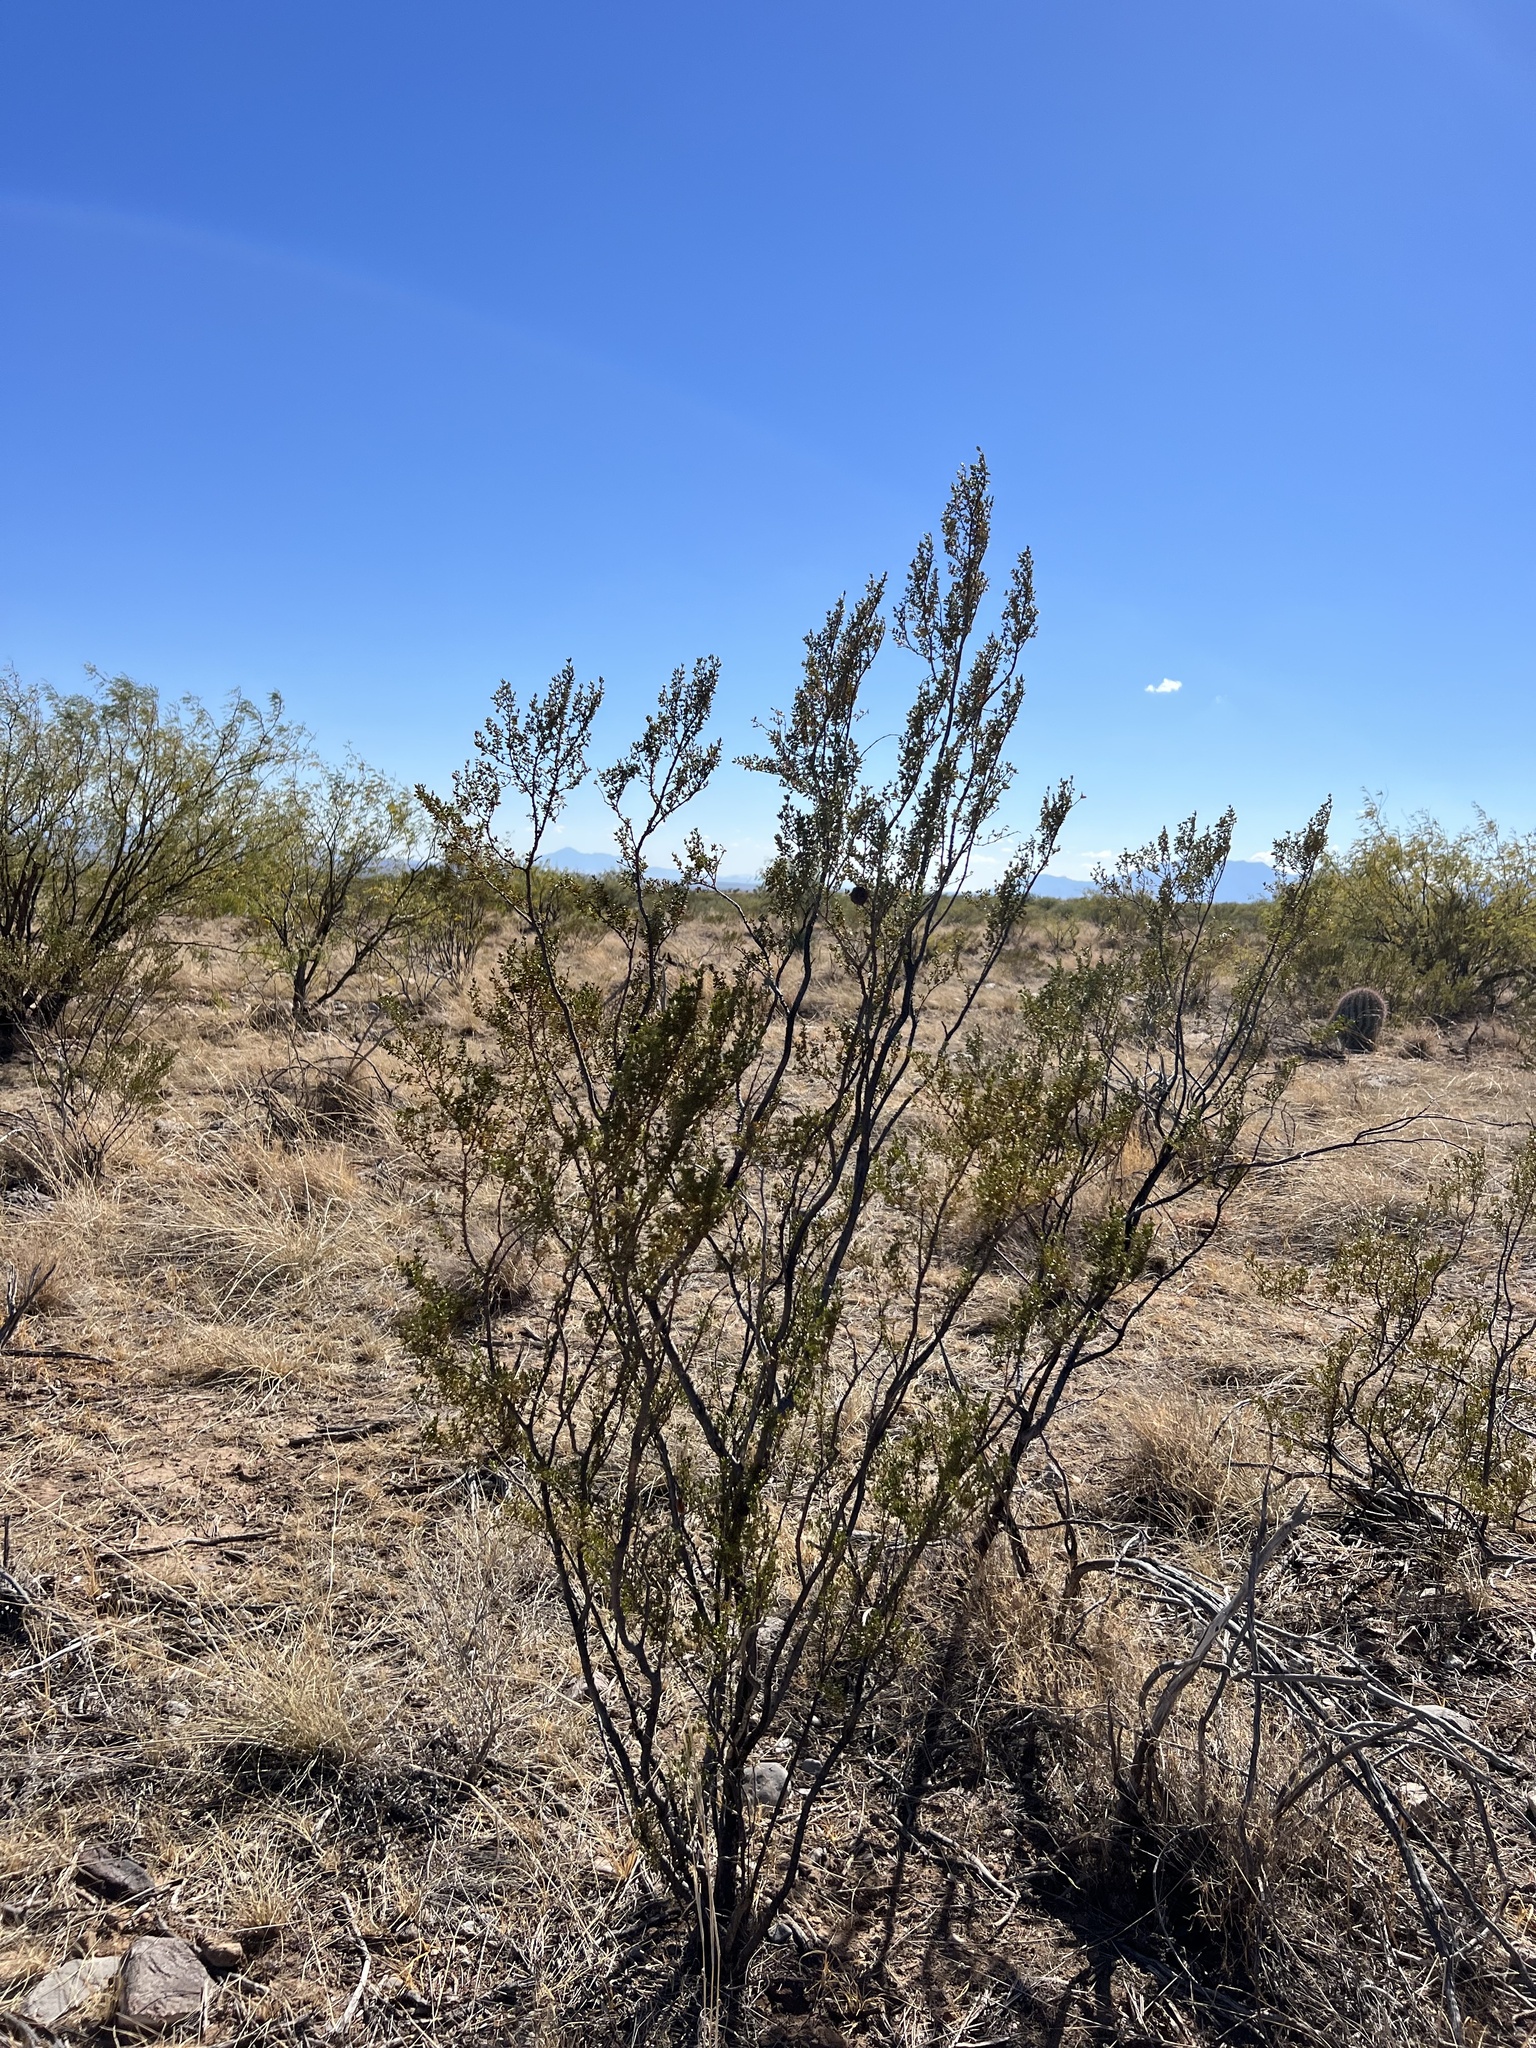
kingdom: Plantae
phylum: Tracheophyta
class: Magnoliopsida
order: Zygophyllales
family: Zygophyllaceae
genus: Larrea
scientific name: Larrea tridentata
